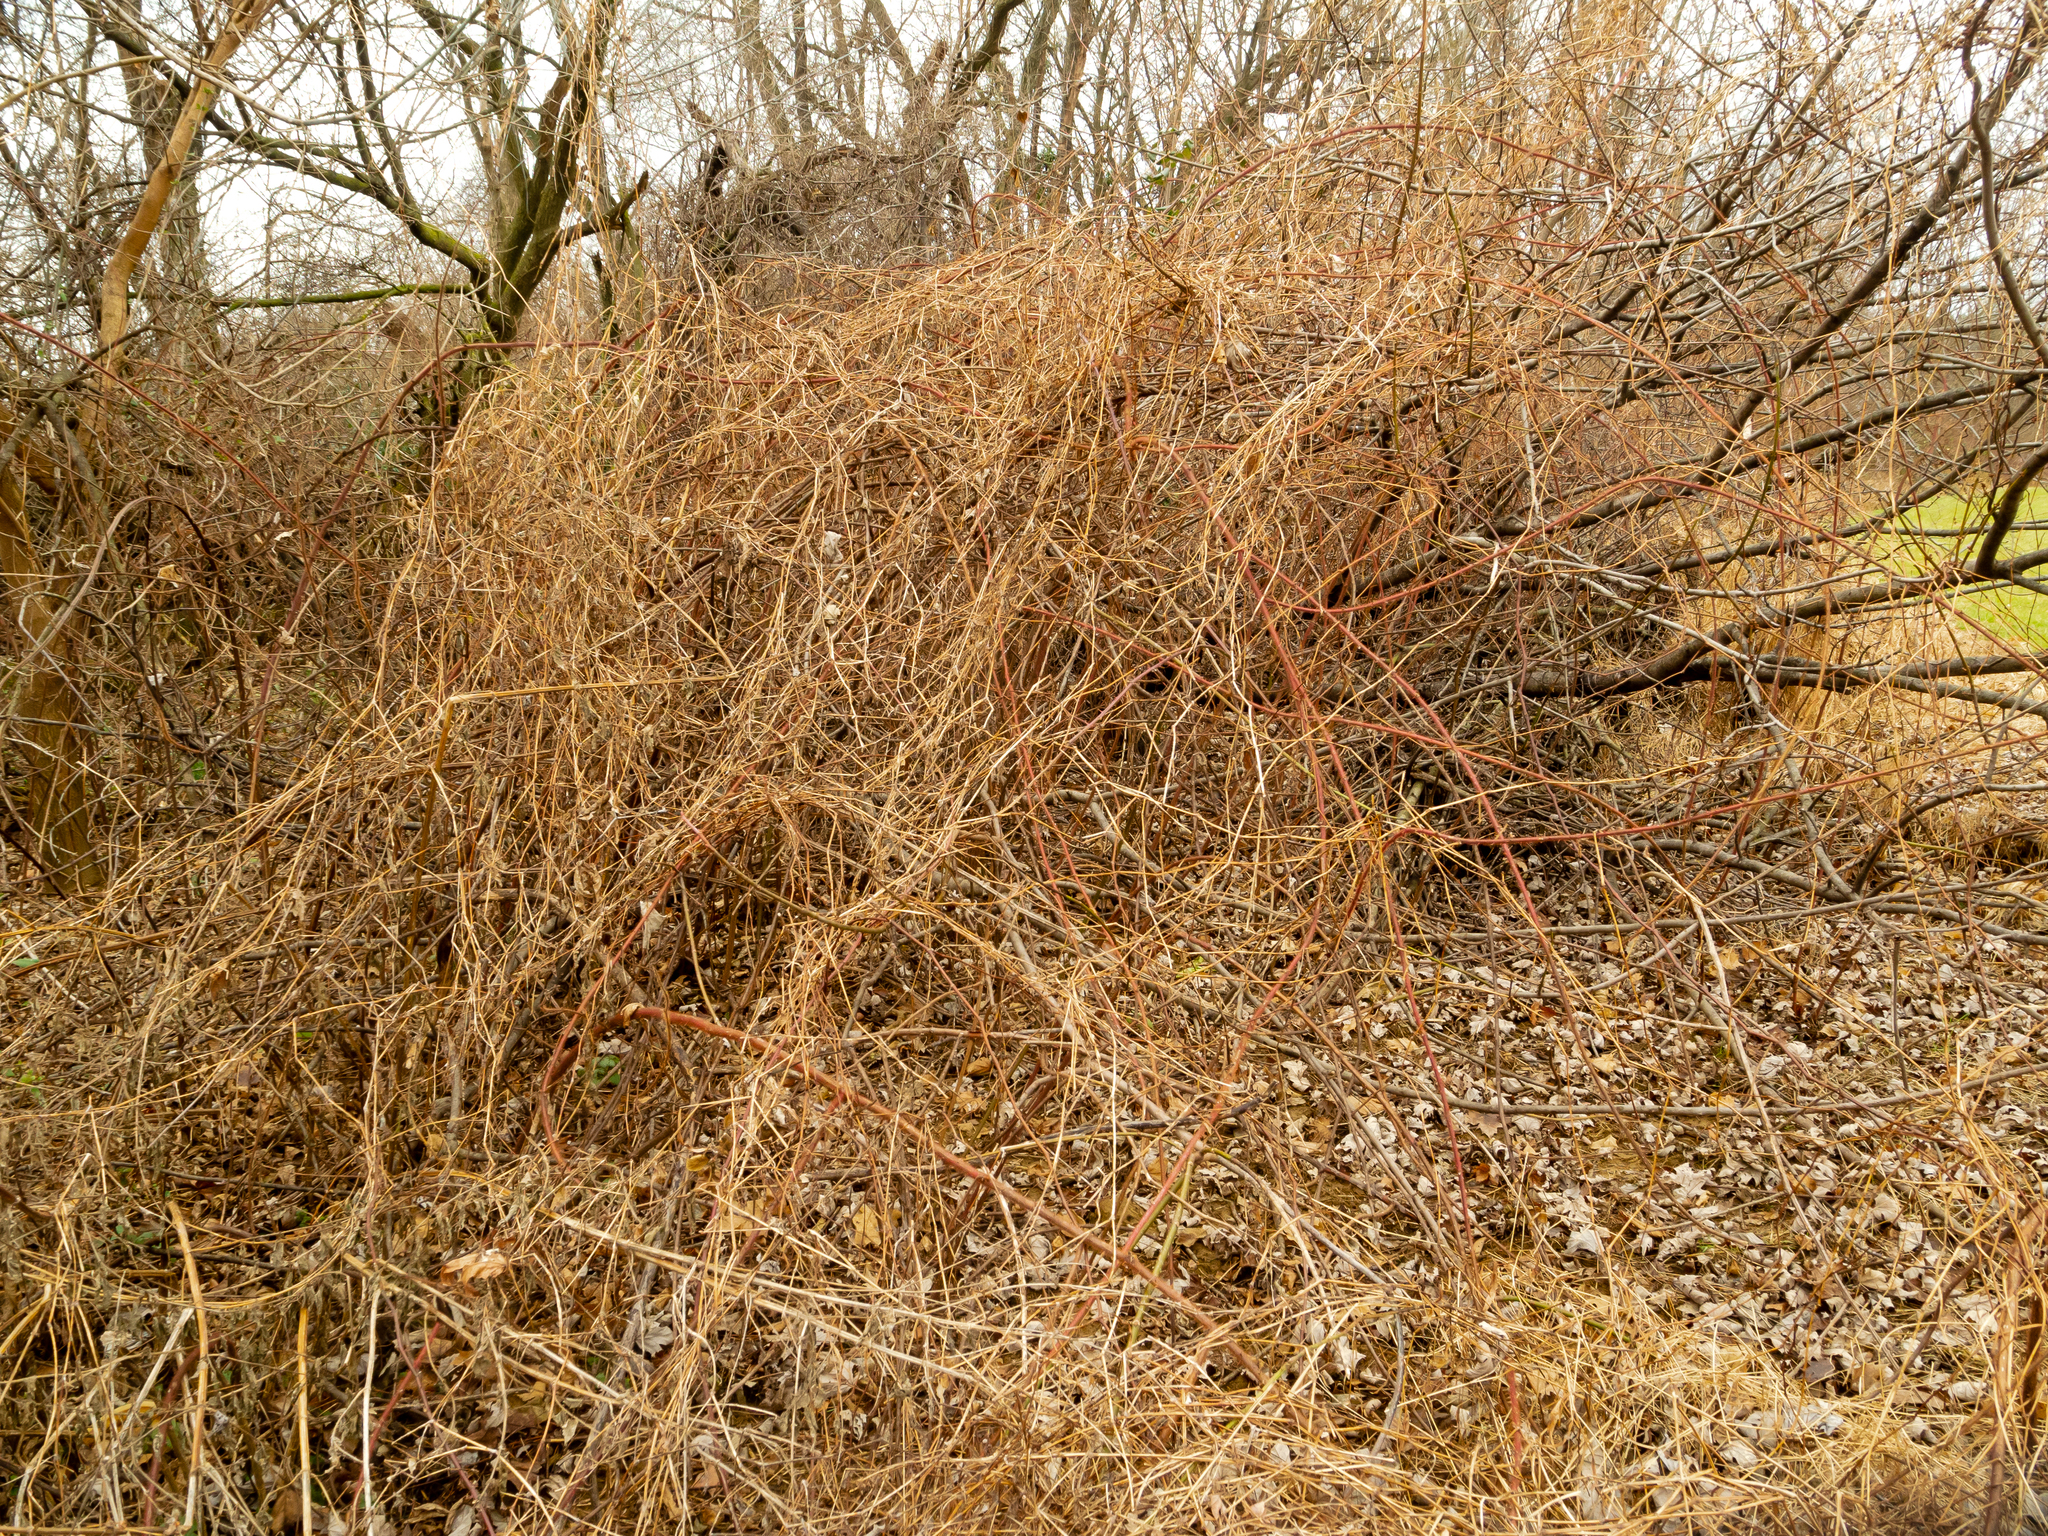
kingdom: Plantae
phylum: Tracheophyta
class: Magnoliopsida
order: Caryophyllales
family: Polygonaceae
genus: Persicaria
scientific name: Persicaria perfoliata
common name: Asiatic tearthumb
